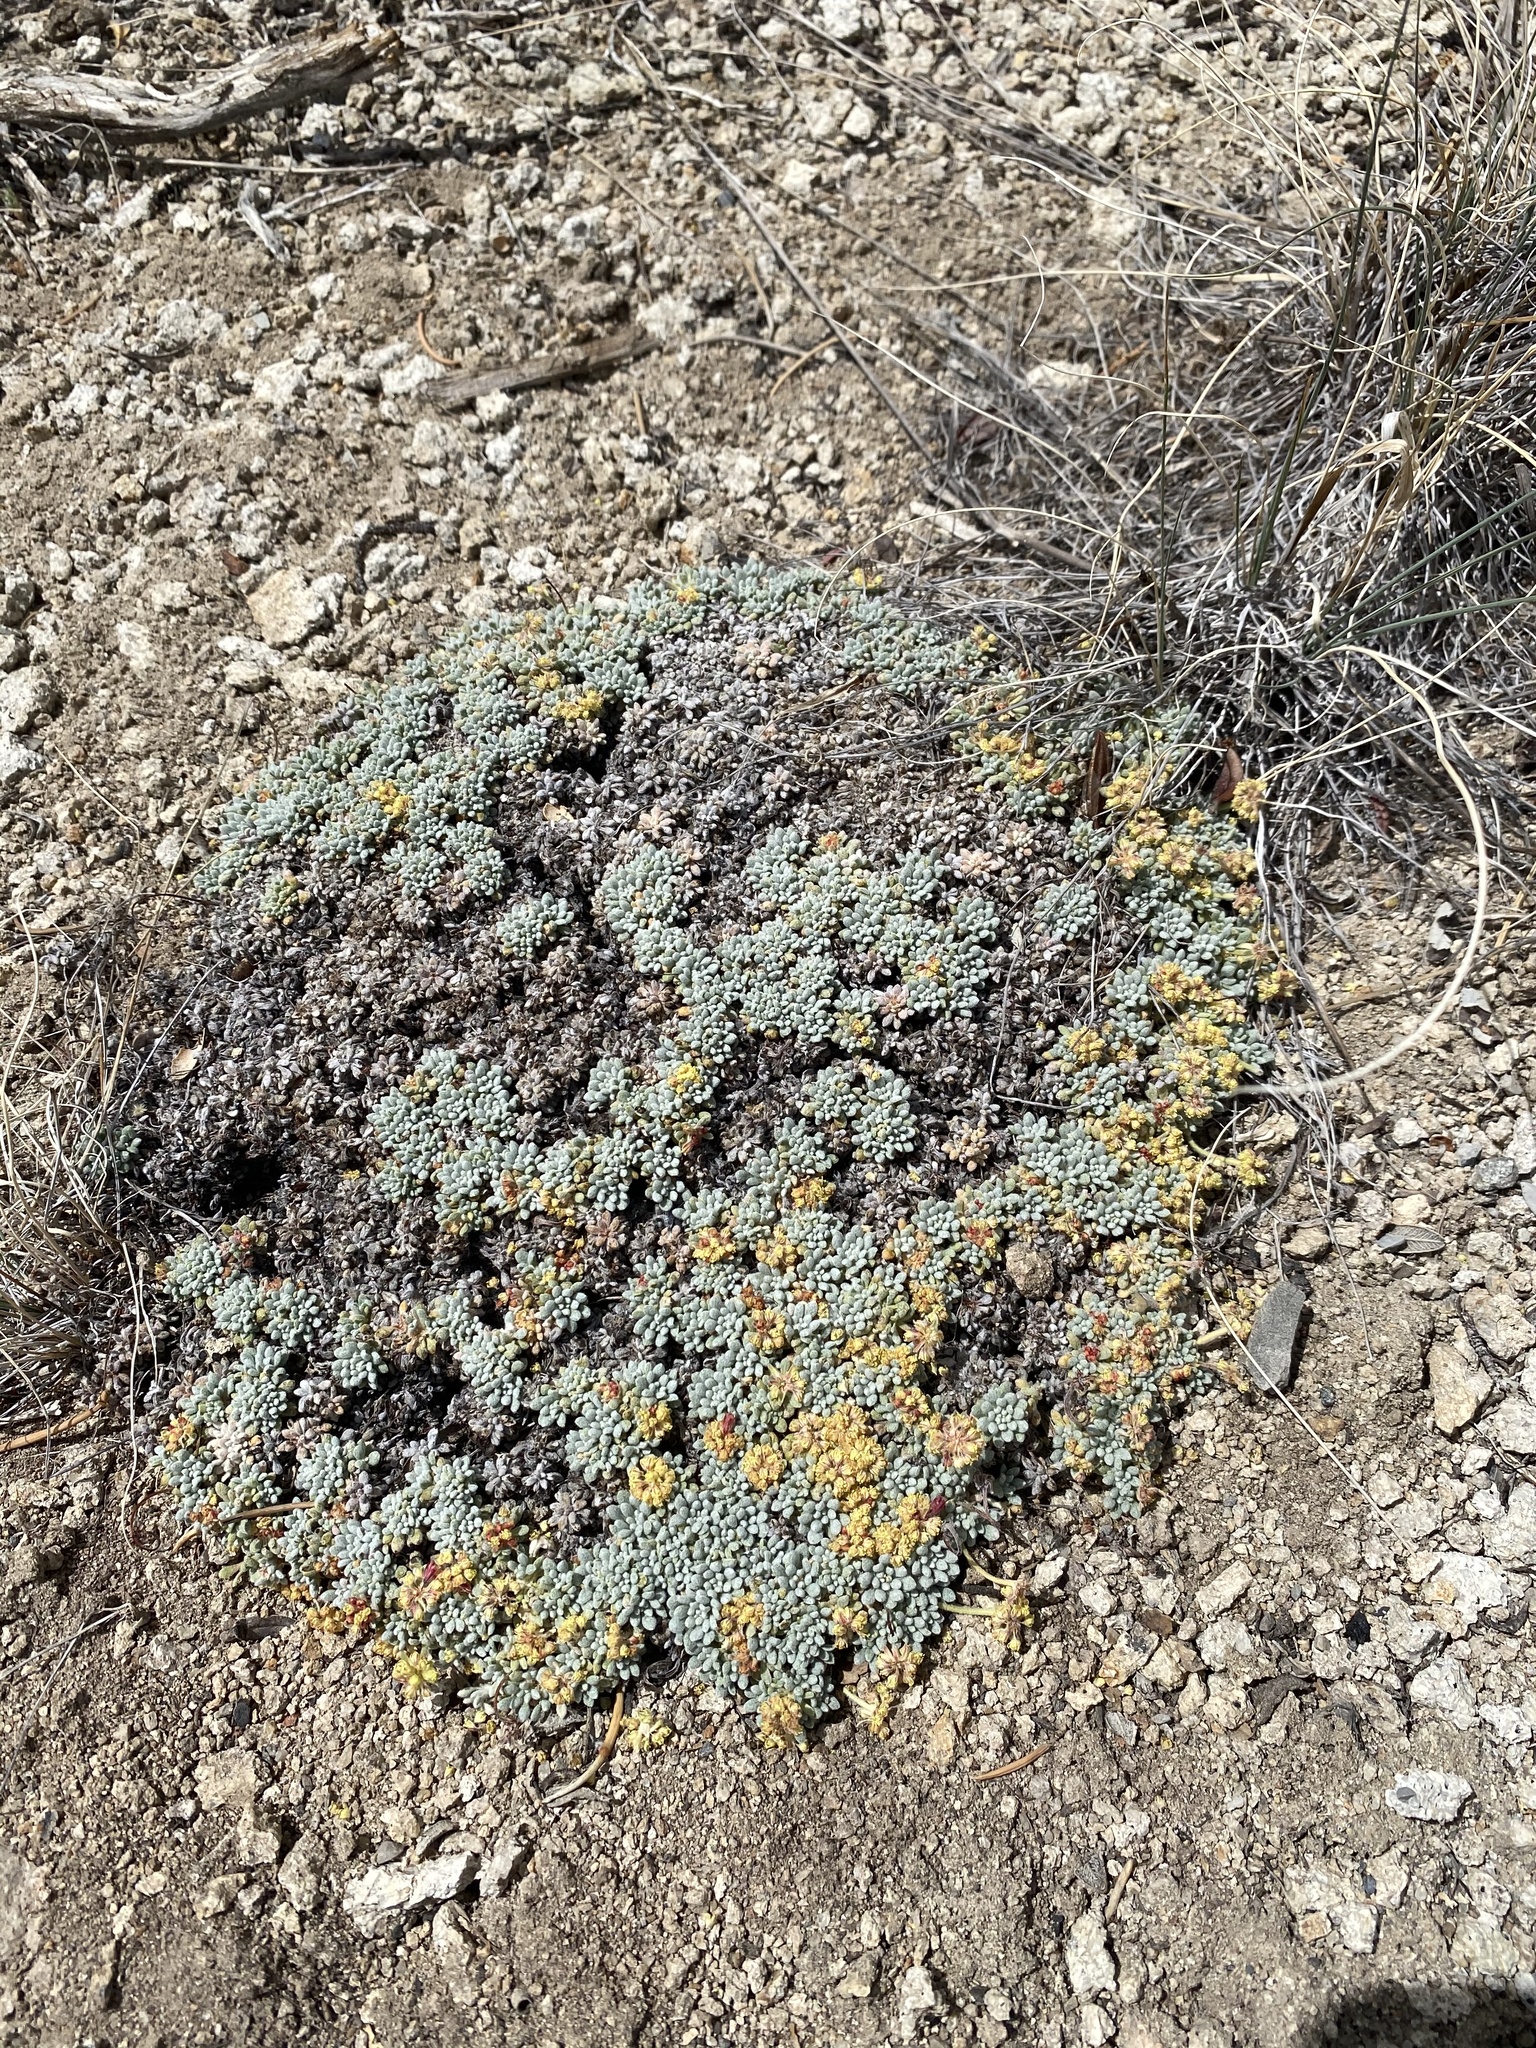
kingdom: Plantae
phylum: Tracheophyta
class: Magnoliopsida
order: Caryophyllales
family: Polygonaceae
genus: Eriogonum
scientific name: Eriogonum caespitosum
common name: Matted wild buckwheat
